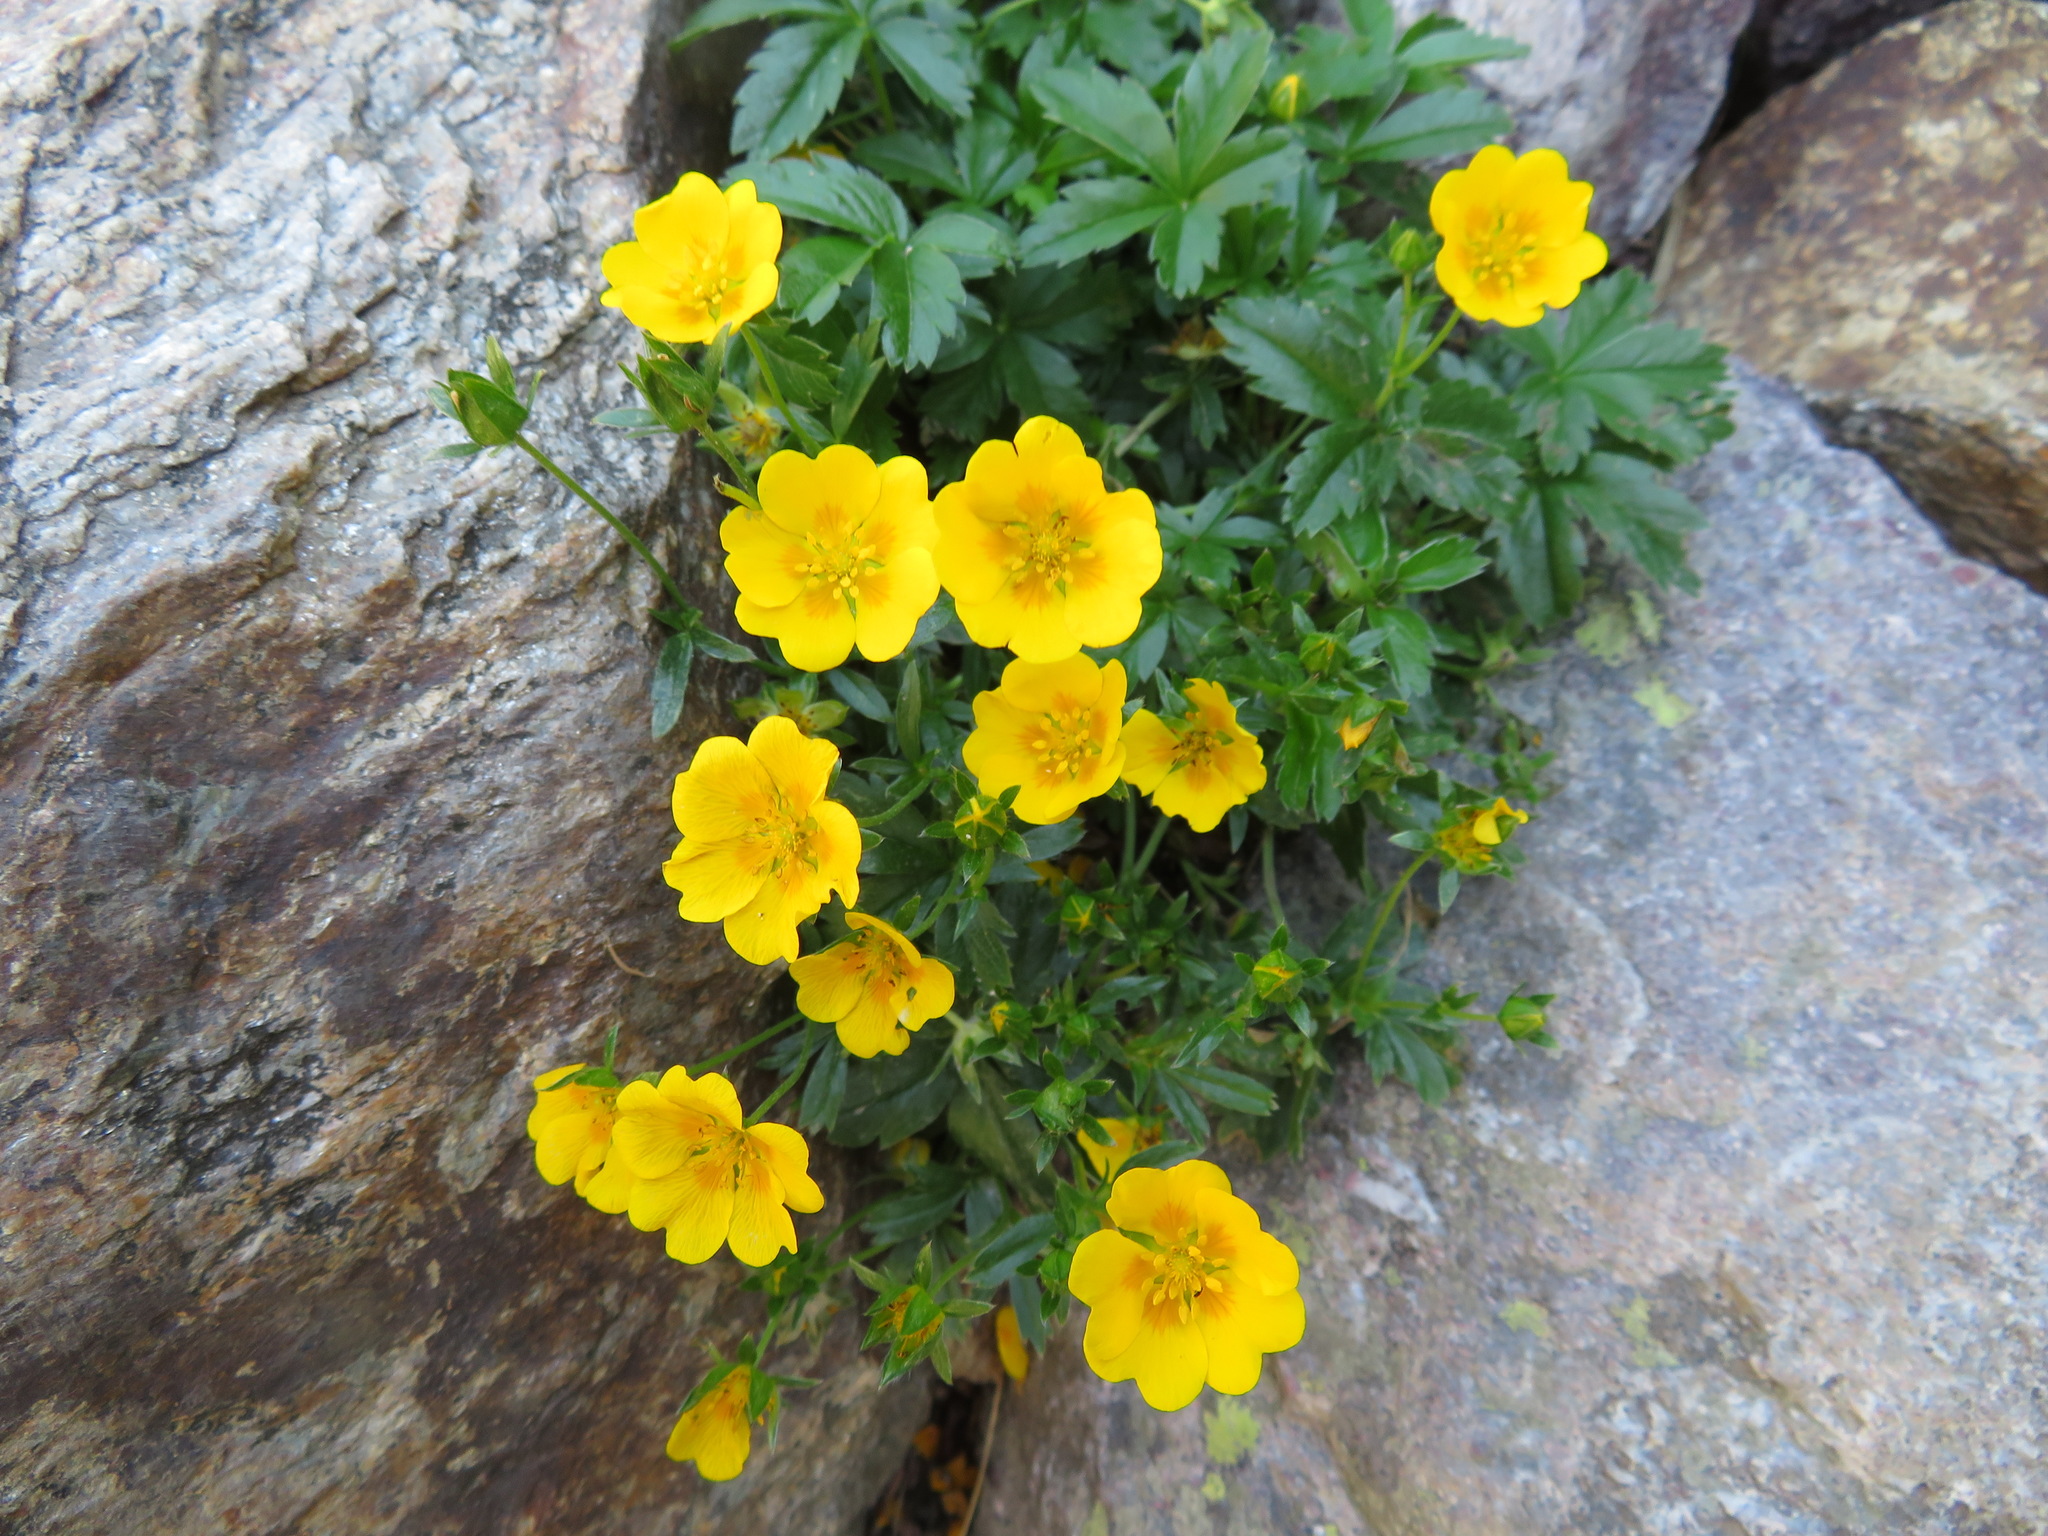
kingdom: Plantae
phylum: Tracheophyta
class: Magnoliopsida
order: Rosales
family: Rosaceae
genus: Potentilla
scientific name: Potentilla aurea
